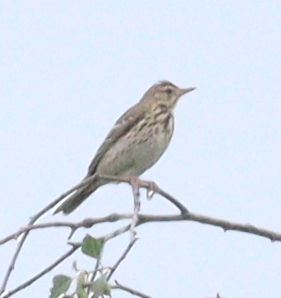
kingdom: Animalia
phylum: Chordata
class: Aves
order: Passeriformes
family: Motacillidae
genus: Anthus
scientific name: Anthus trivialis
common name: Tree pipit
